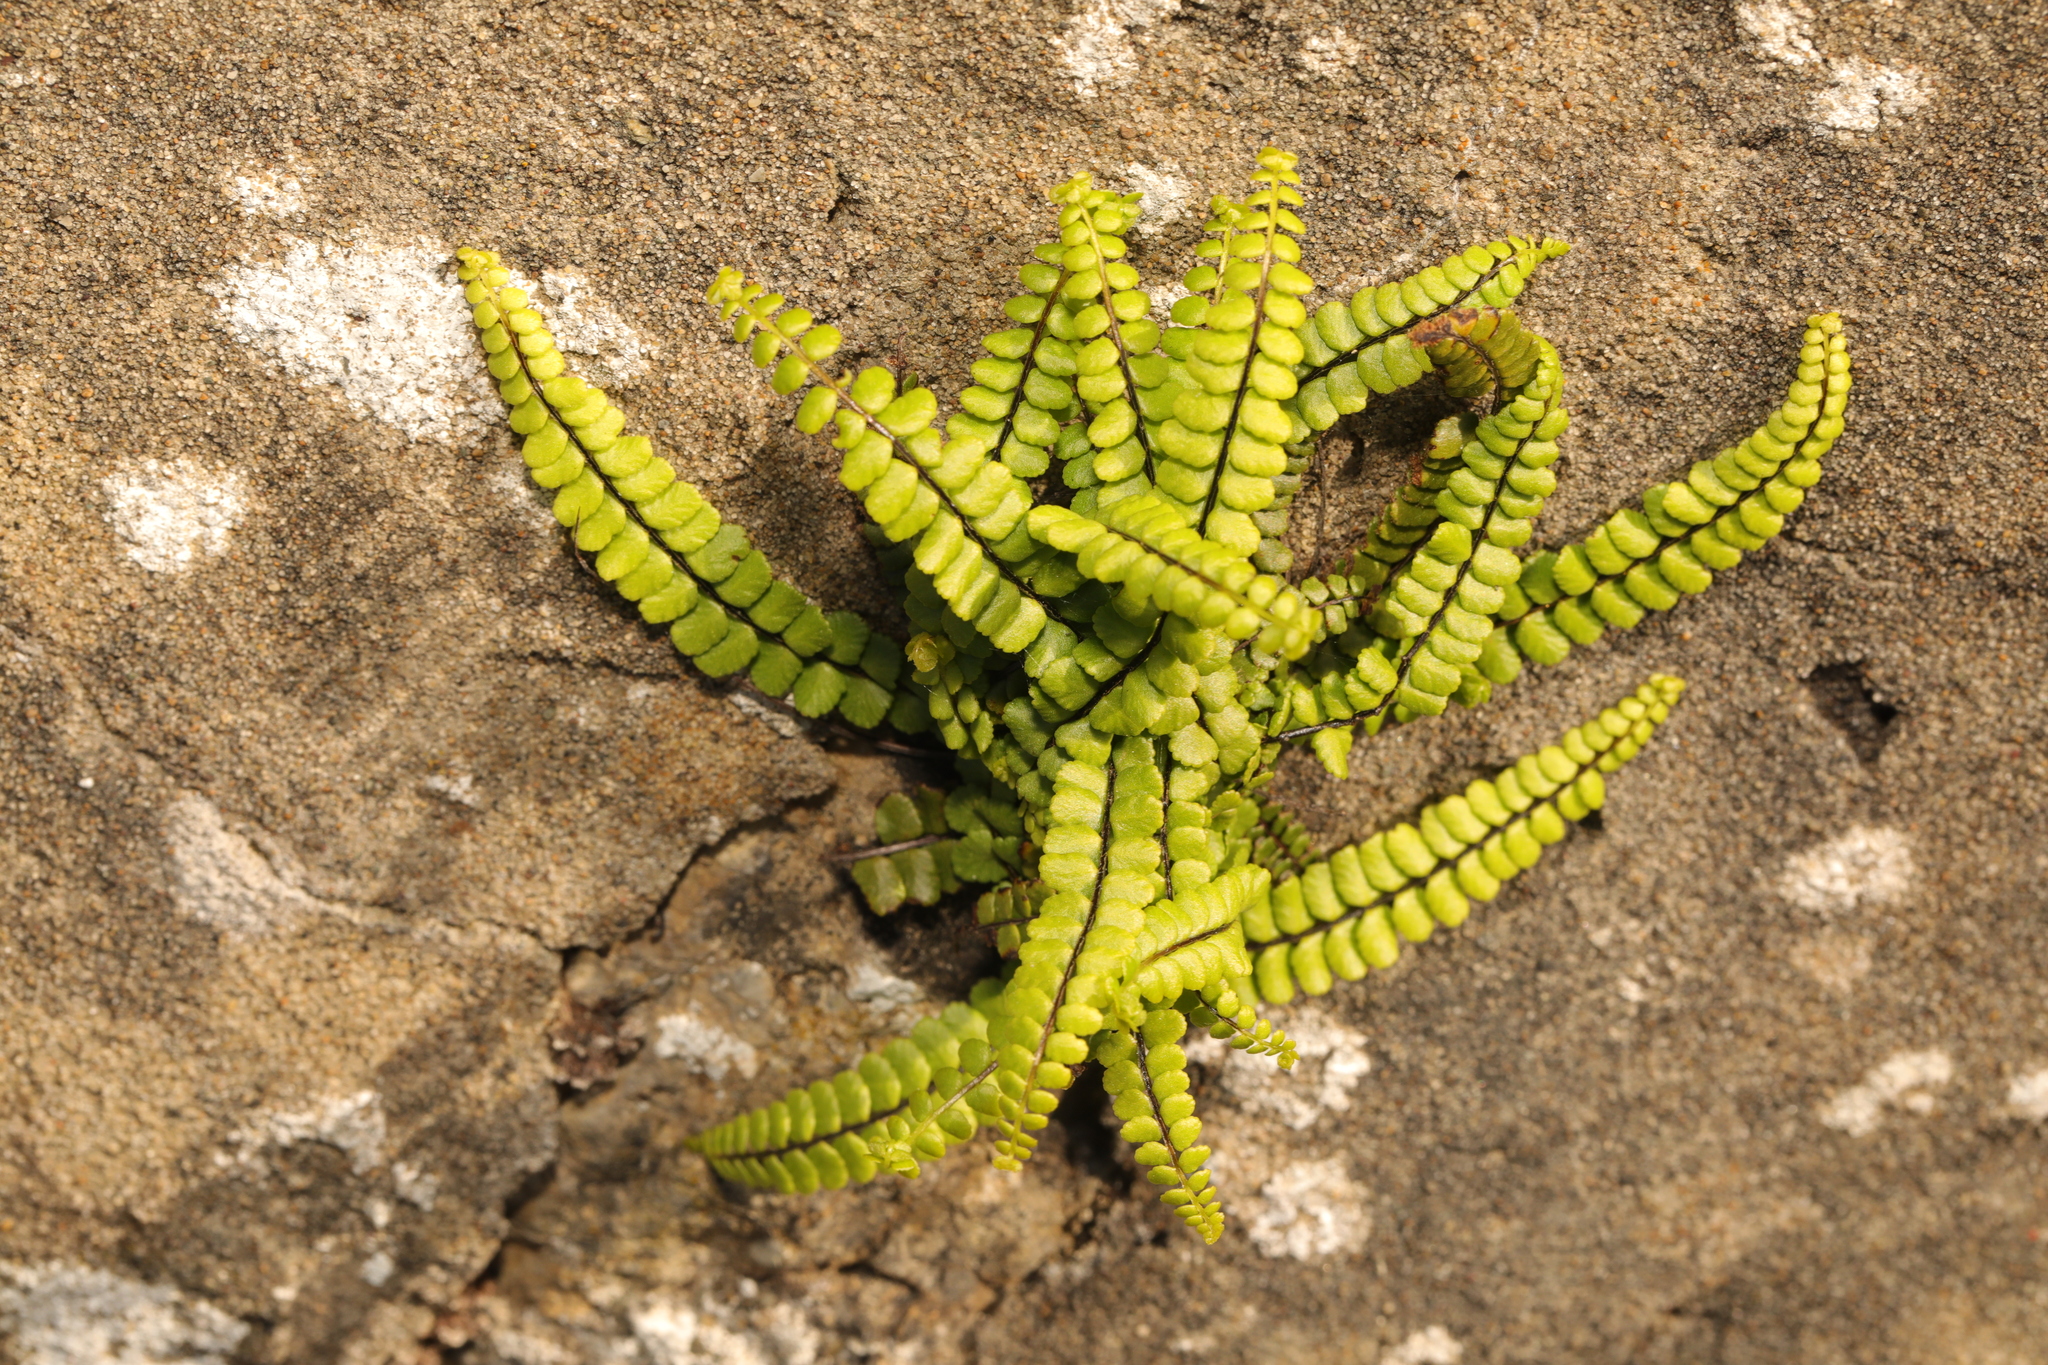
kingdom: Plantae
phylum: Tracheophyta
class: Polypodiopsida
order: Polypodiales
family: Aspleniaceae
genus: Asplenium
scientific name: Asplenium trichomanes
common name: Maidenhair spleenwort
